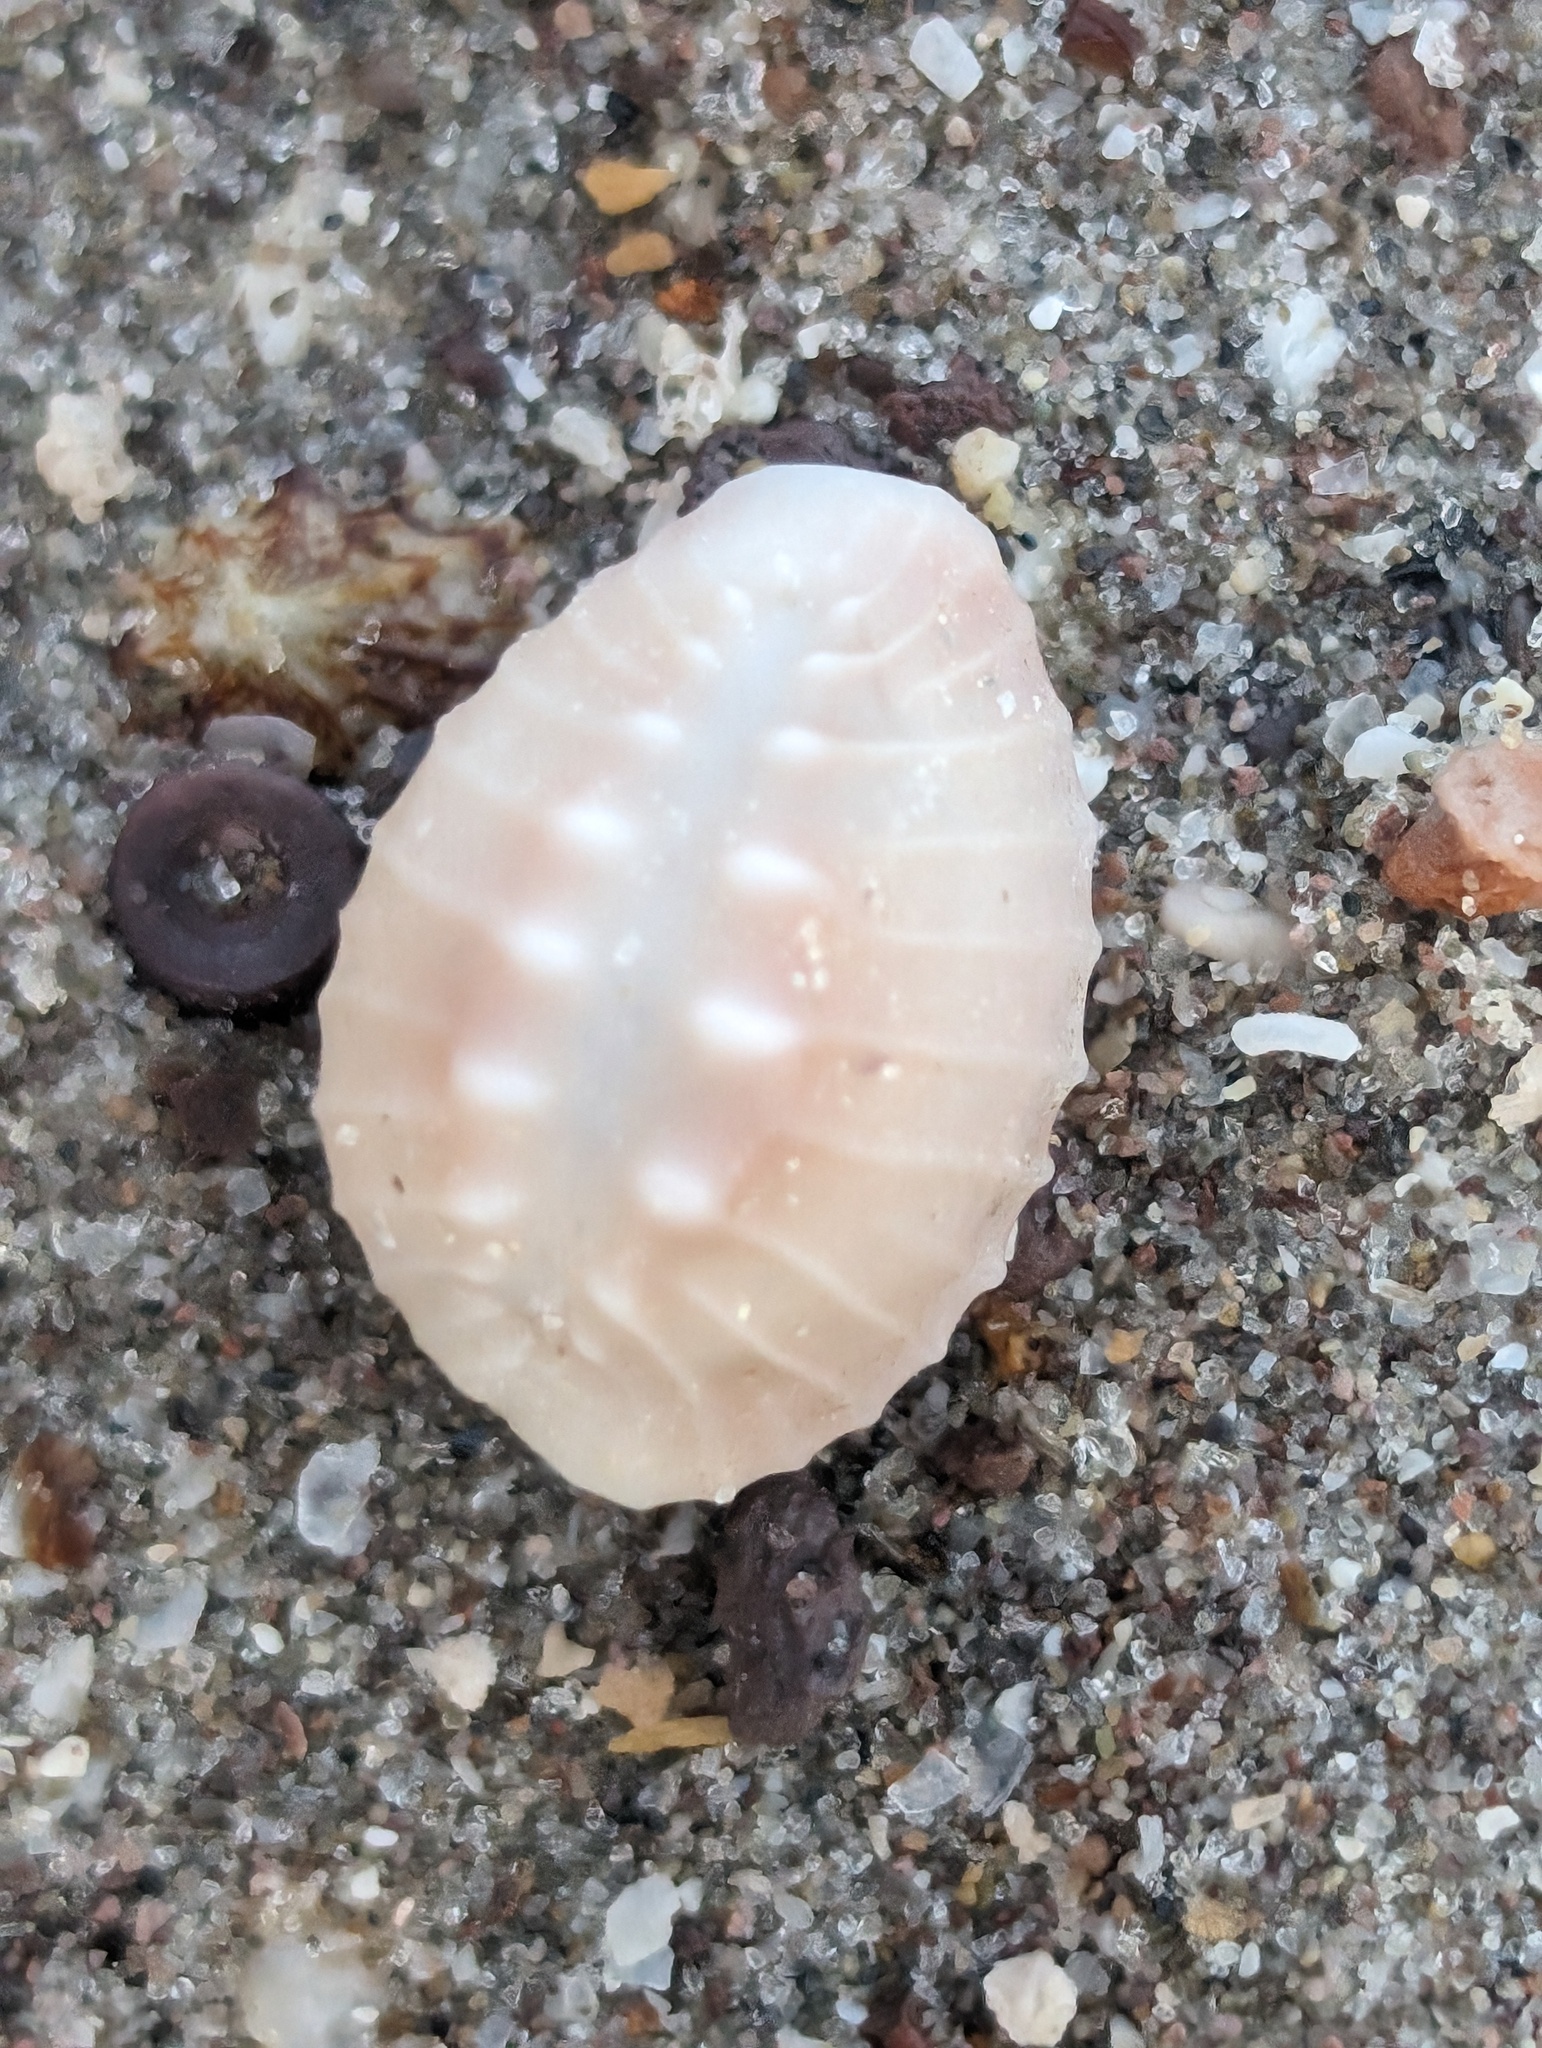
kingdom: Animalia
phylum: Mollusca
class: Gastropoda
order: Littorinimorpha
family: Triviidae
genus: Pusula
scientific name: Pusula solandri
